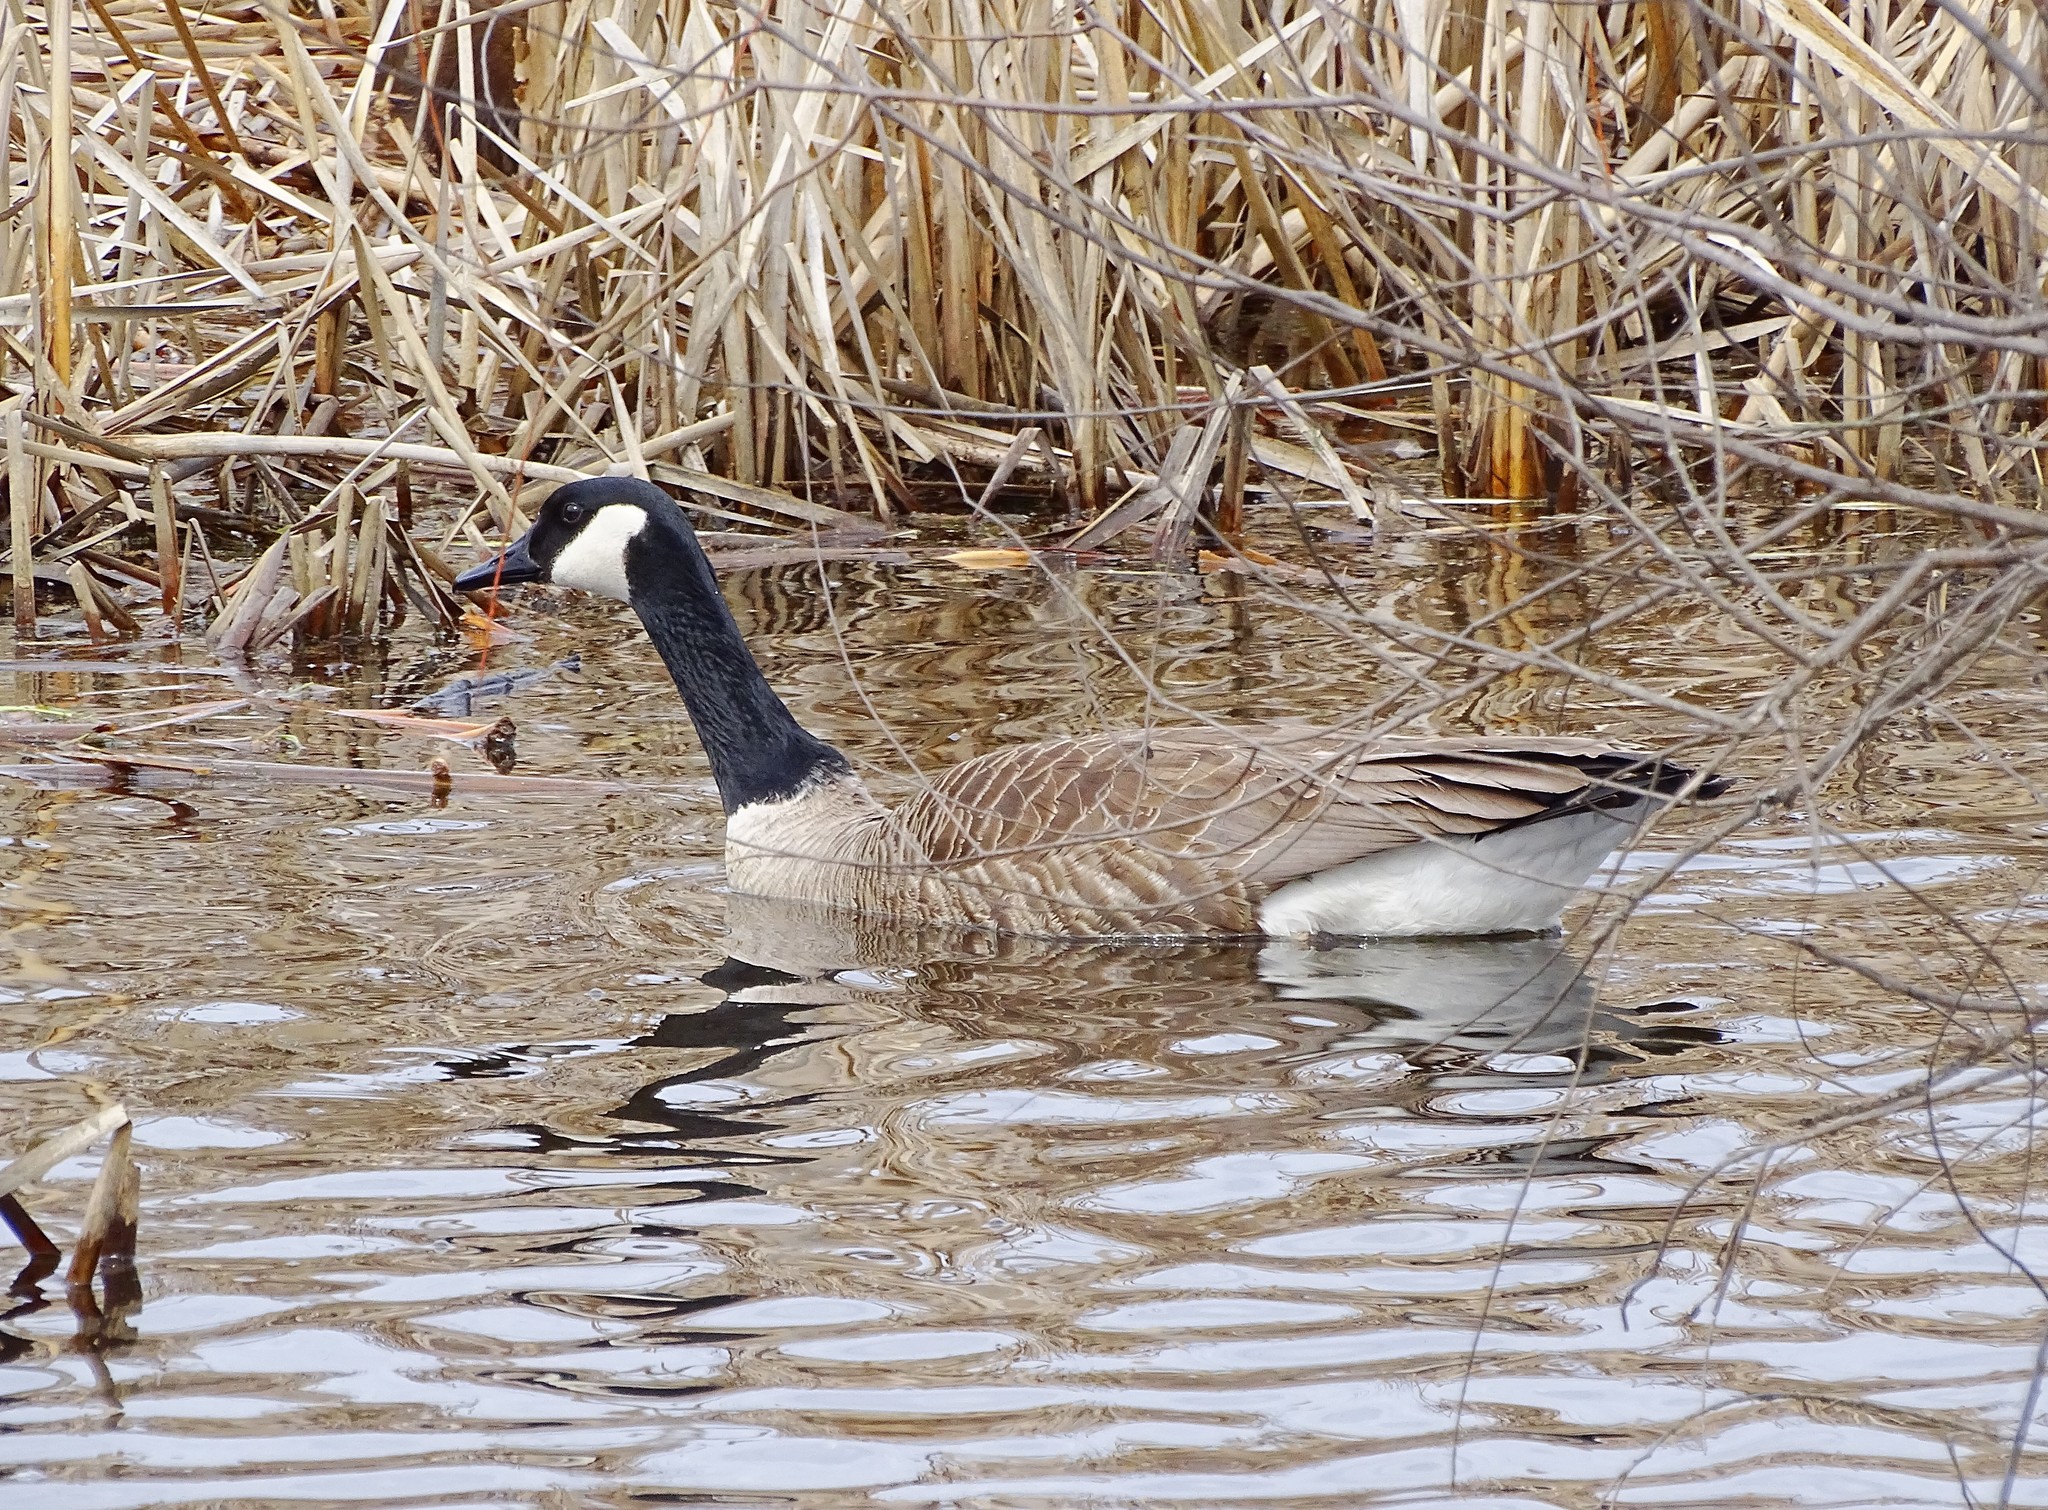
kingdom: Animalia
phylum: Chordata
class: Aves
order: Anseriformes
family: Anatidae
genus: Branta
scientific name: Branta canadensis
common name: Canada goose
